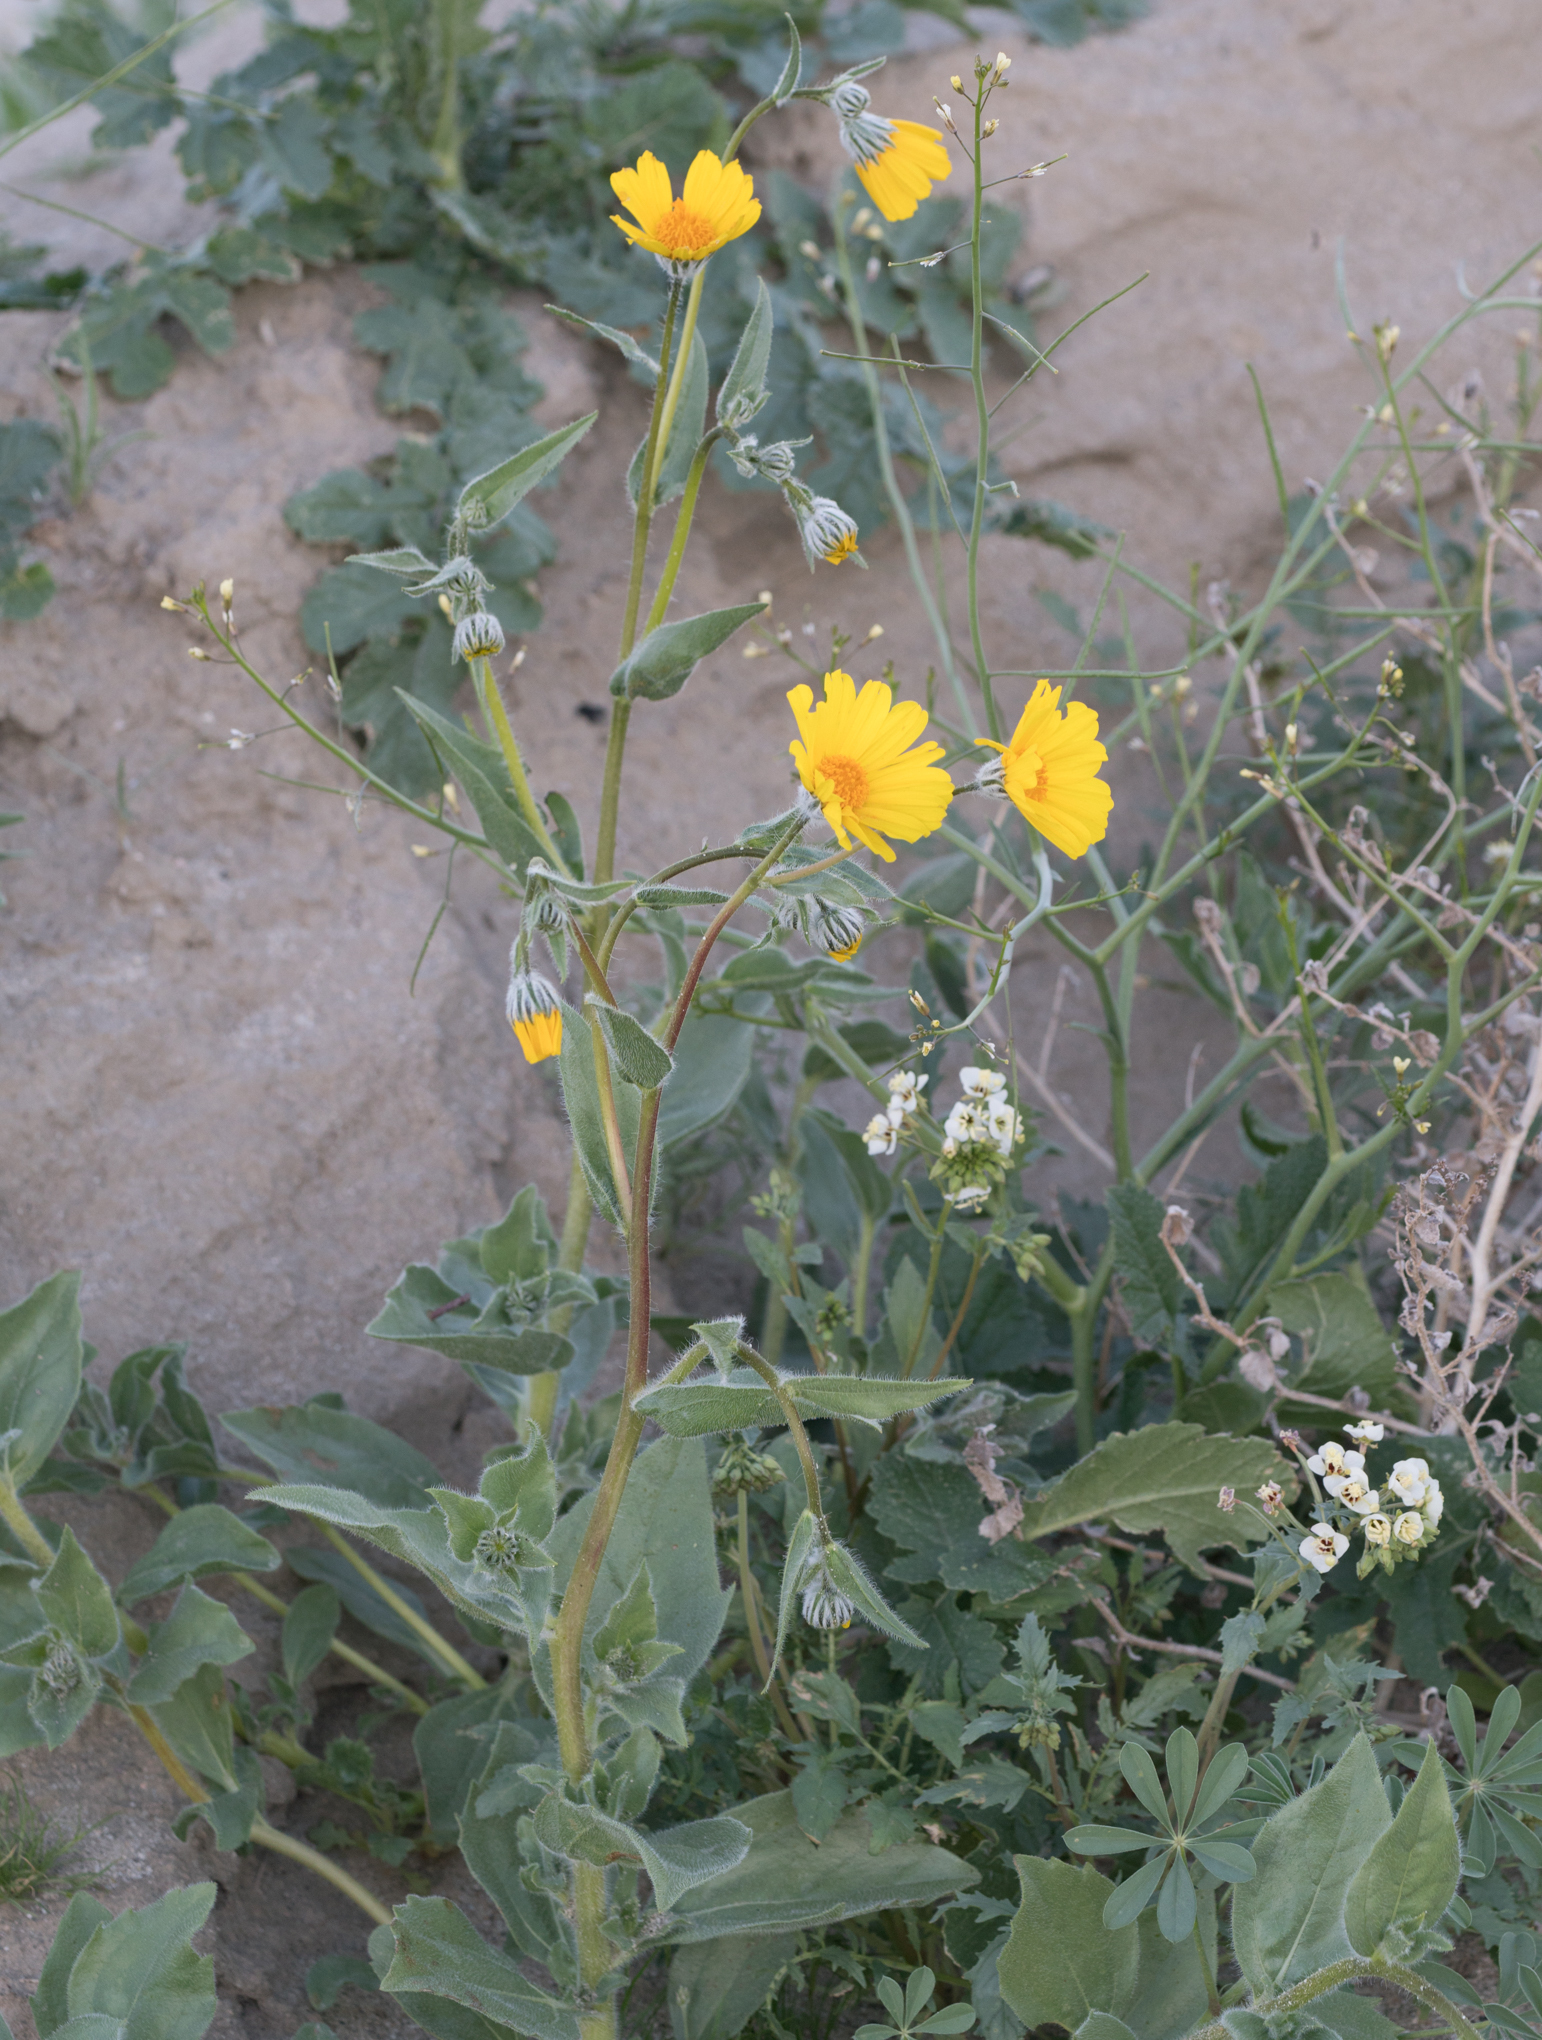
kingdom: Plantae
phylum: Tracheophyta
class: Magnoliopsida
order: Asterales
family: Asteraceae
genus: Geraea
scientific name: Geraea canescens
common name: Desert-gold
